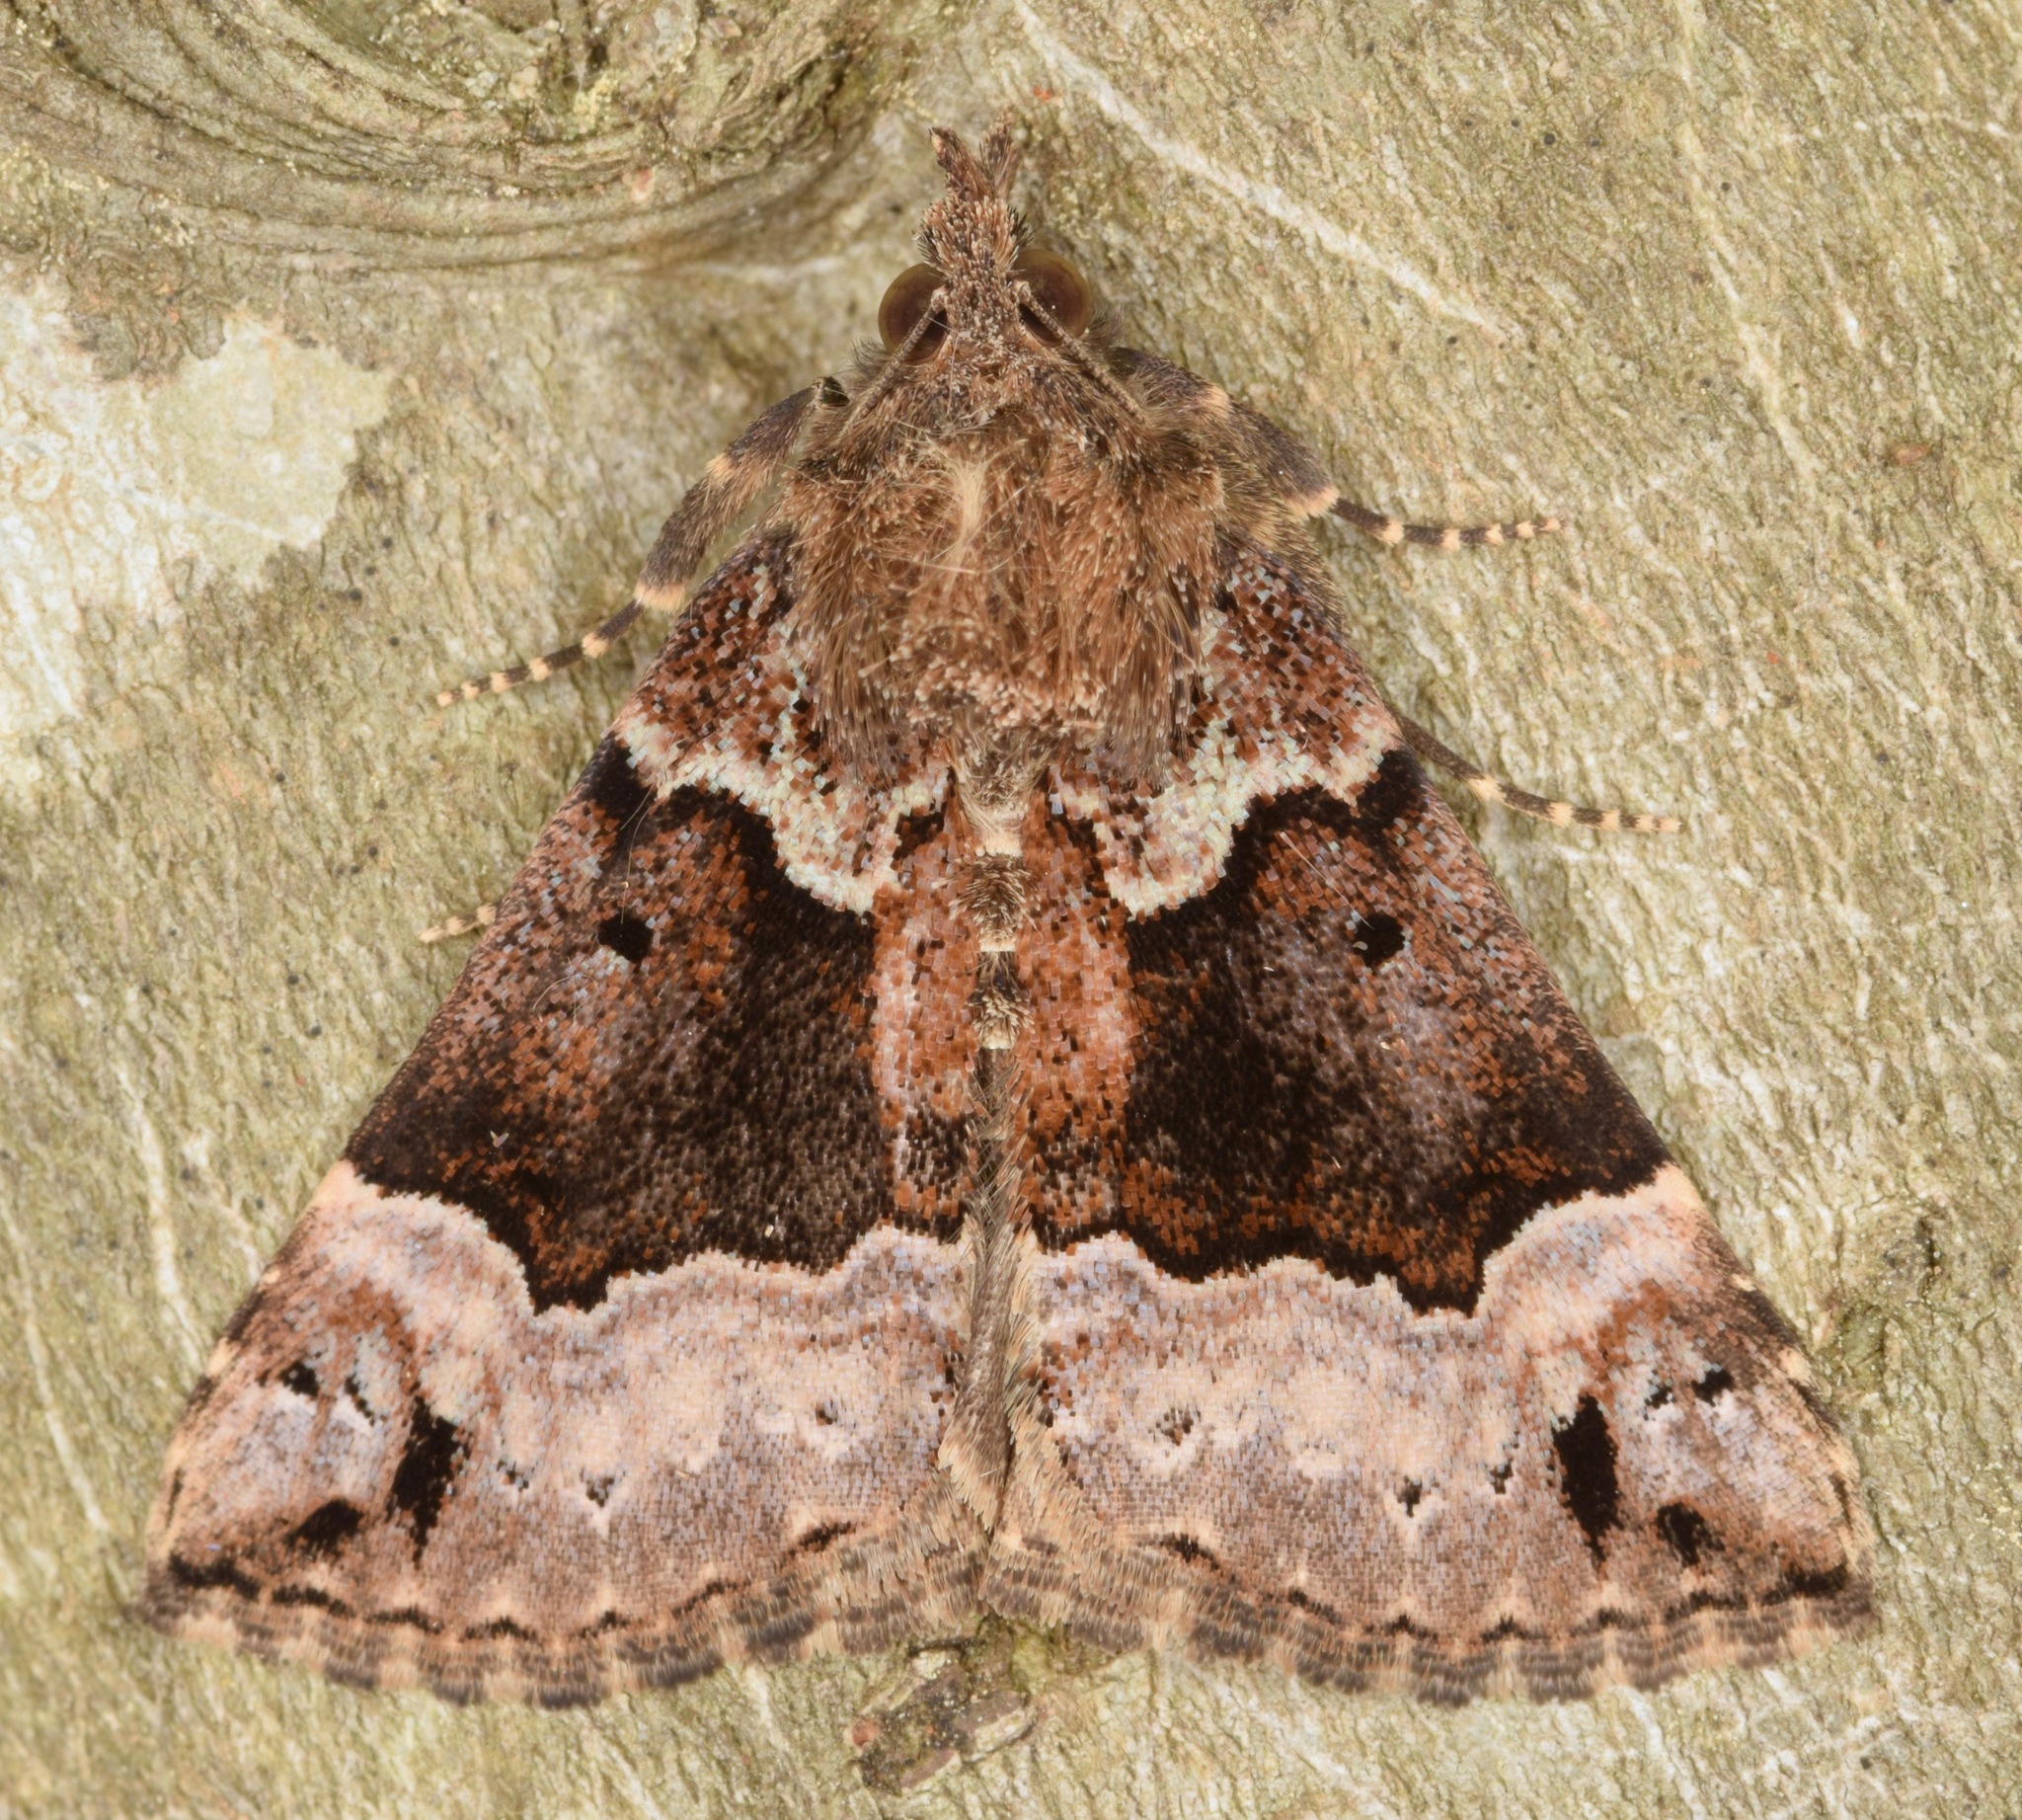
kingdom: Animalia
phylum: Arthropoda
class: Insecta
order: Lepidoptera
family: Erebidae
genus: Hypena
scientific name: Hypena palparia
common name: Mottled bomolocha moth
